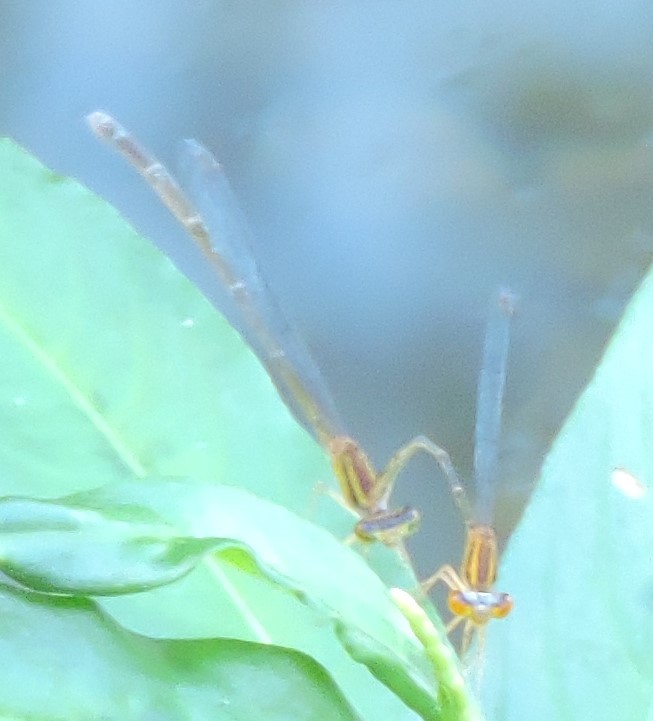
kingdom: Animalia
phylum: Arthropoda
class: Insecta
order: Odonata
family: Coenagrionidae
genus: Enallagma
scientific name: Enallagma signatum
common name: Orange bluet
